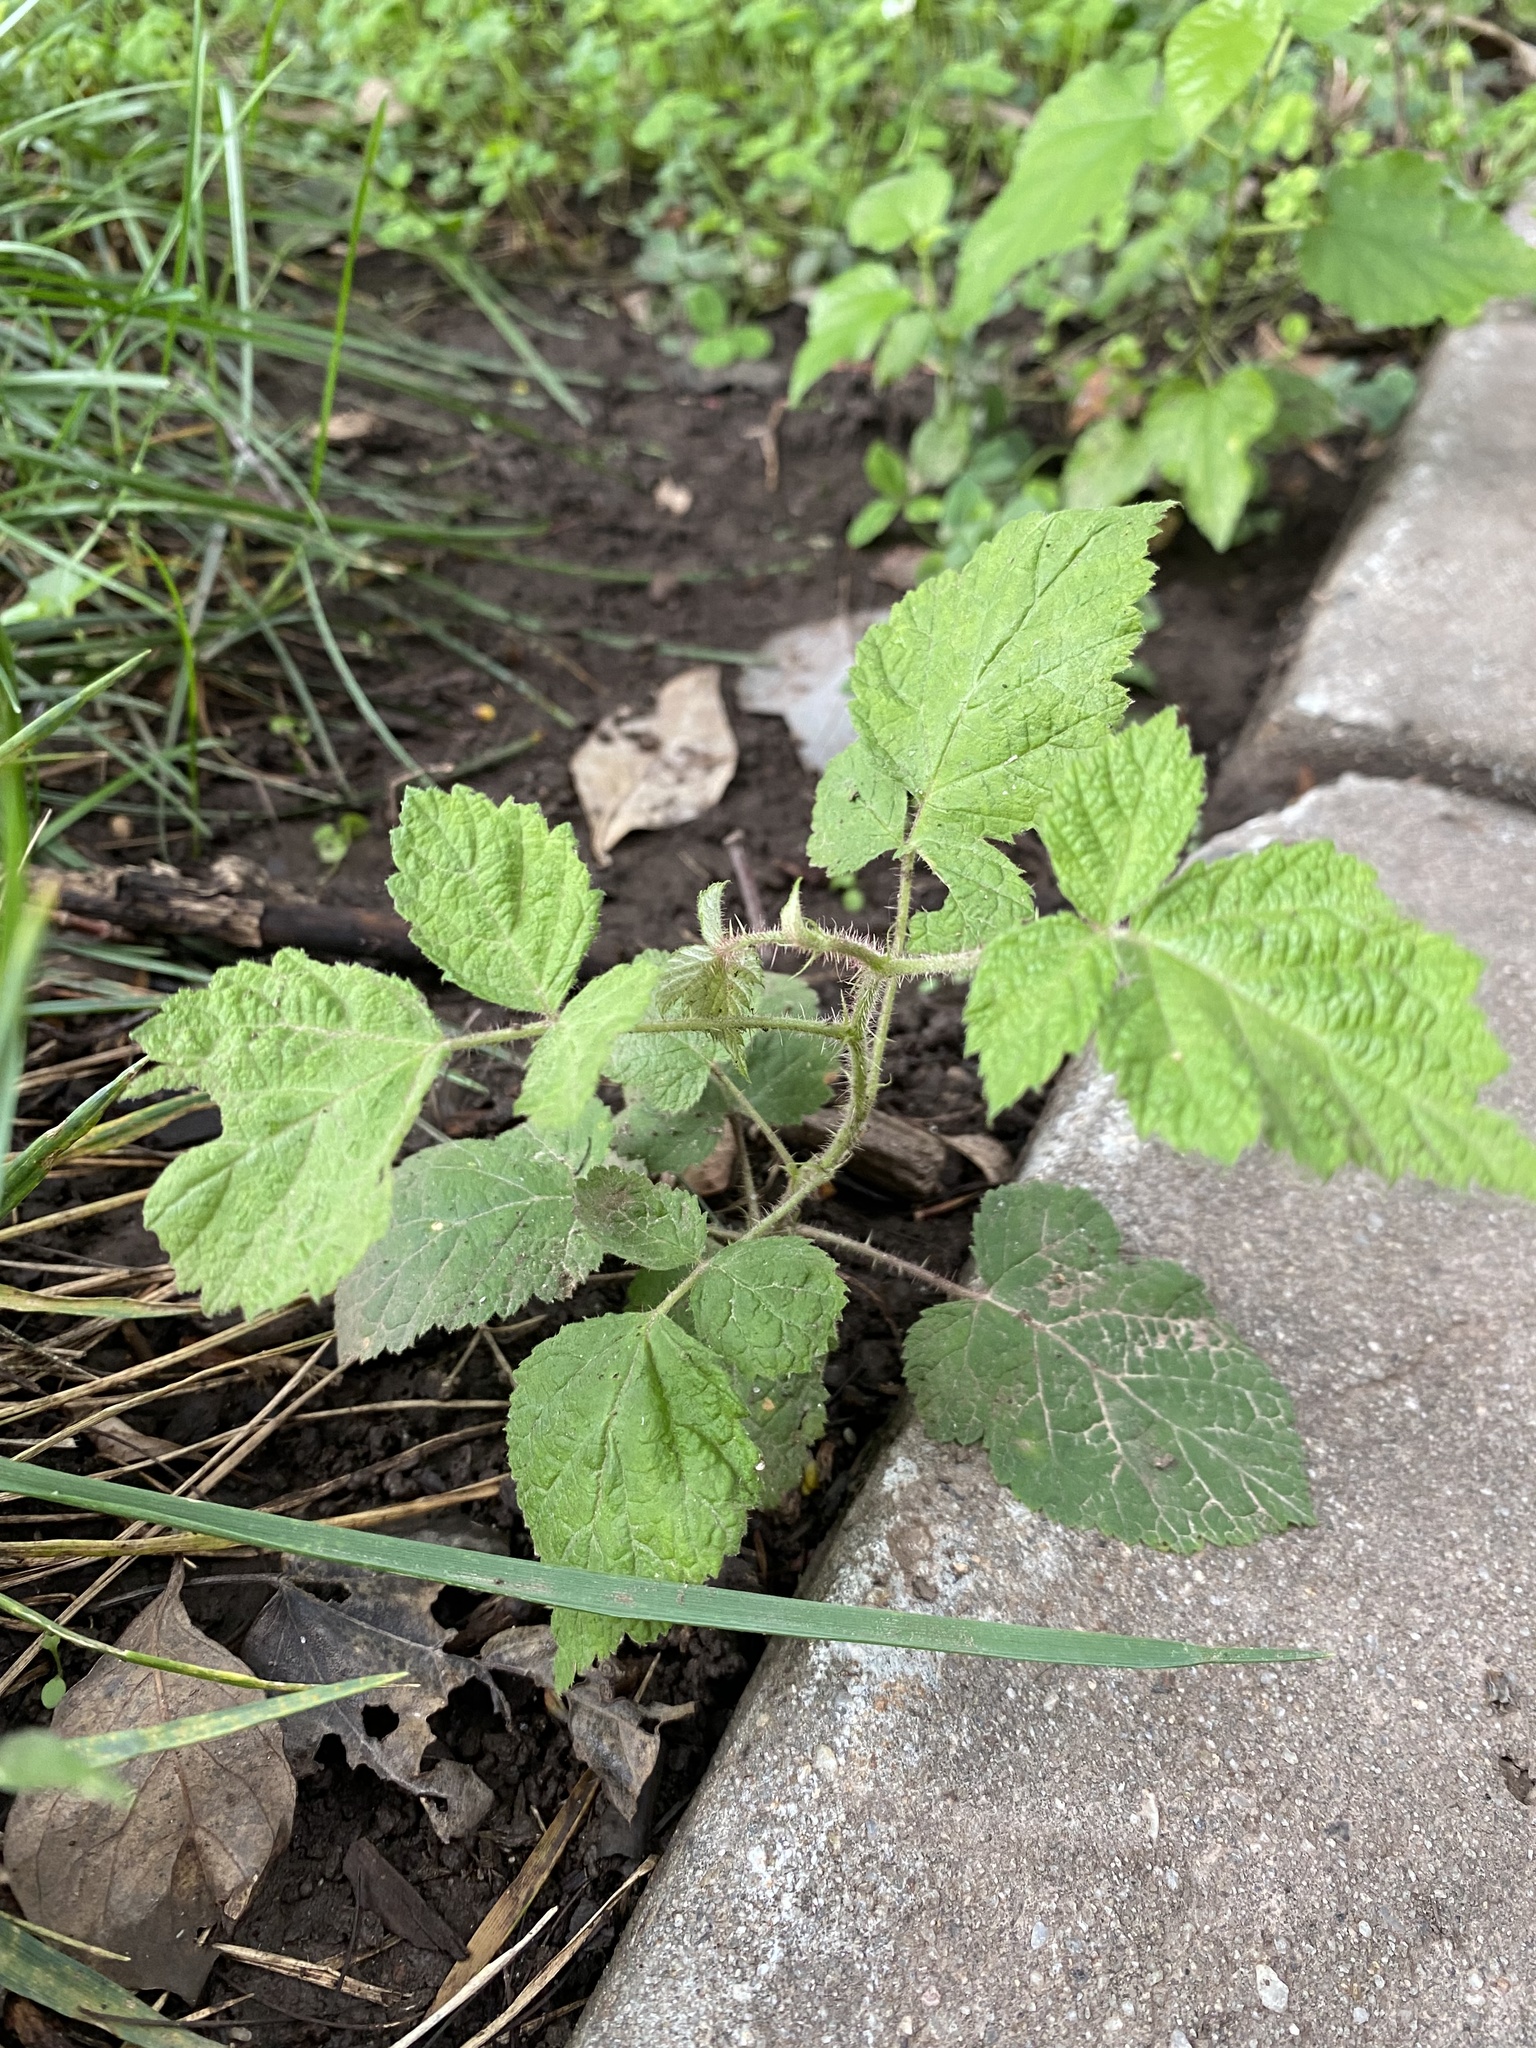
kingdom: Plantae
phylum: Tracheophyta
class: Magnoliopsida
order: Rosales
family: Rosaceae
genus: Rubus
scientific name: Rubus phoenicolasius
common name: Japanese wineberry
